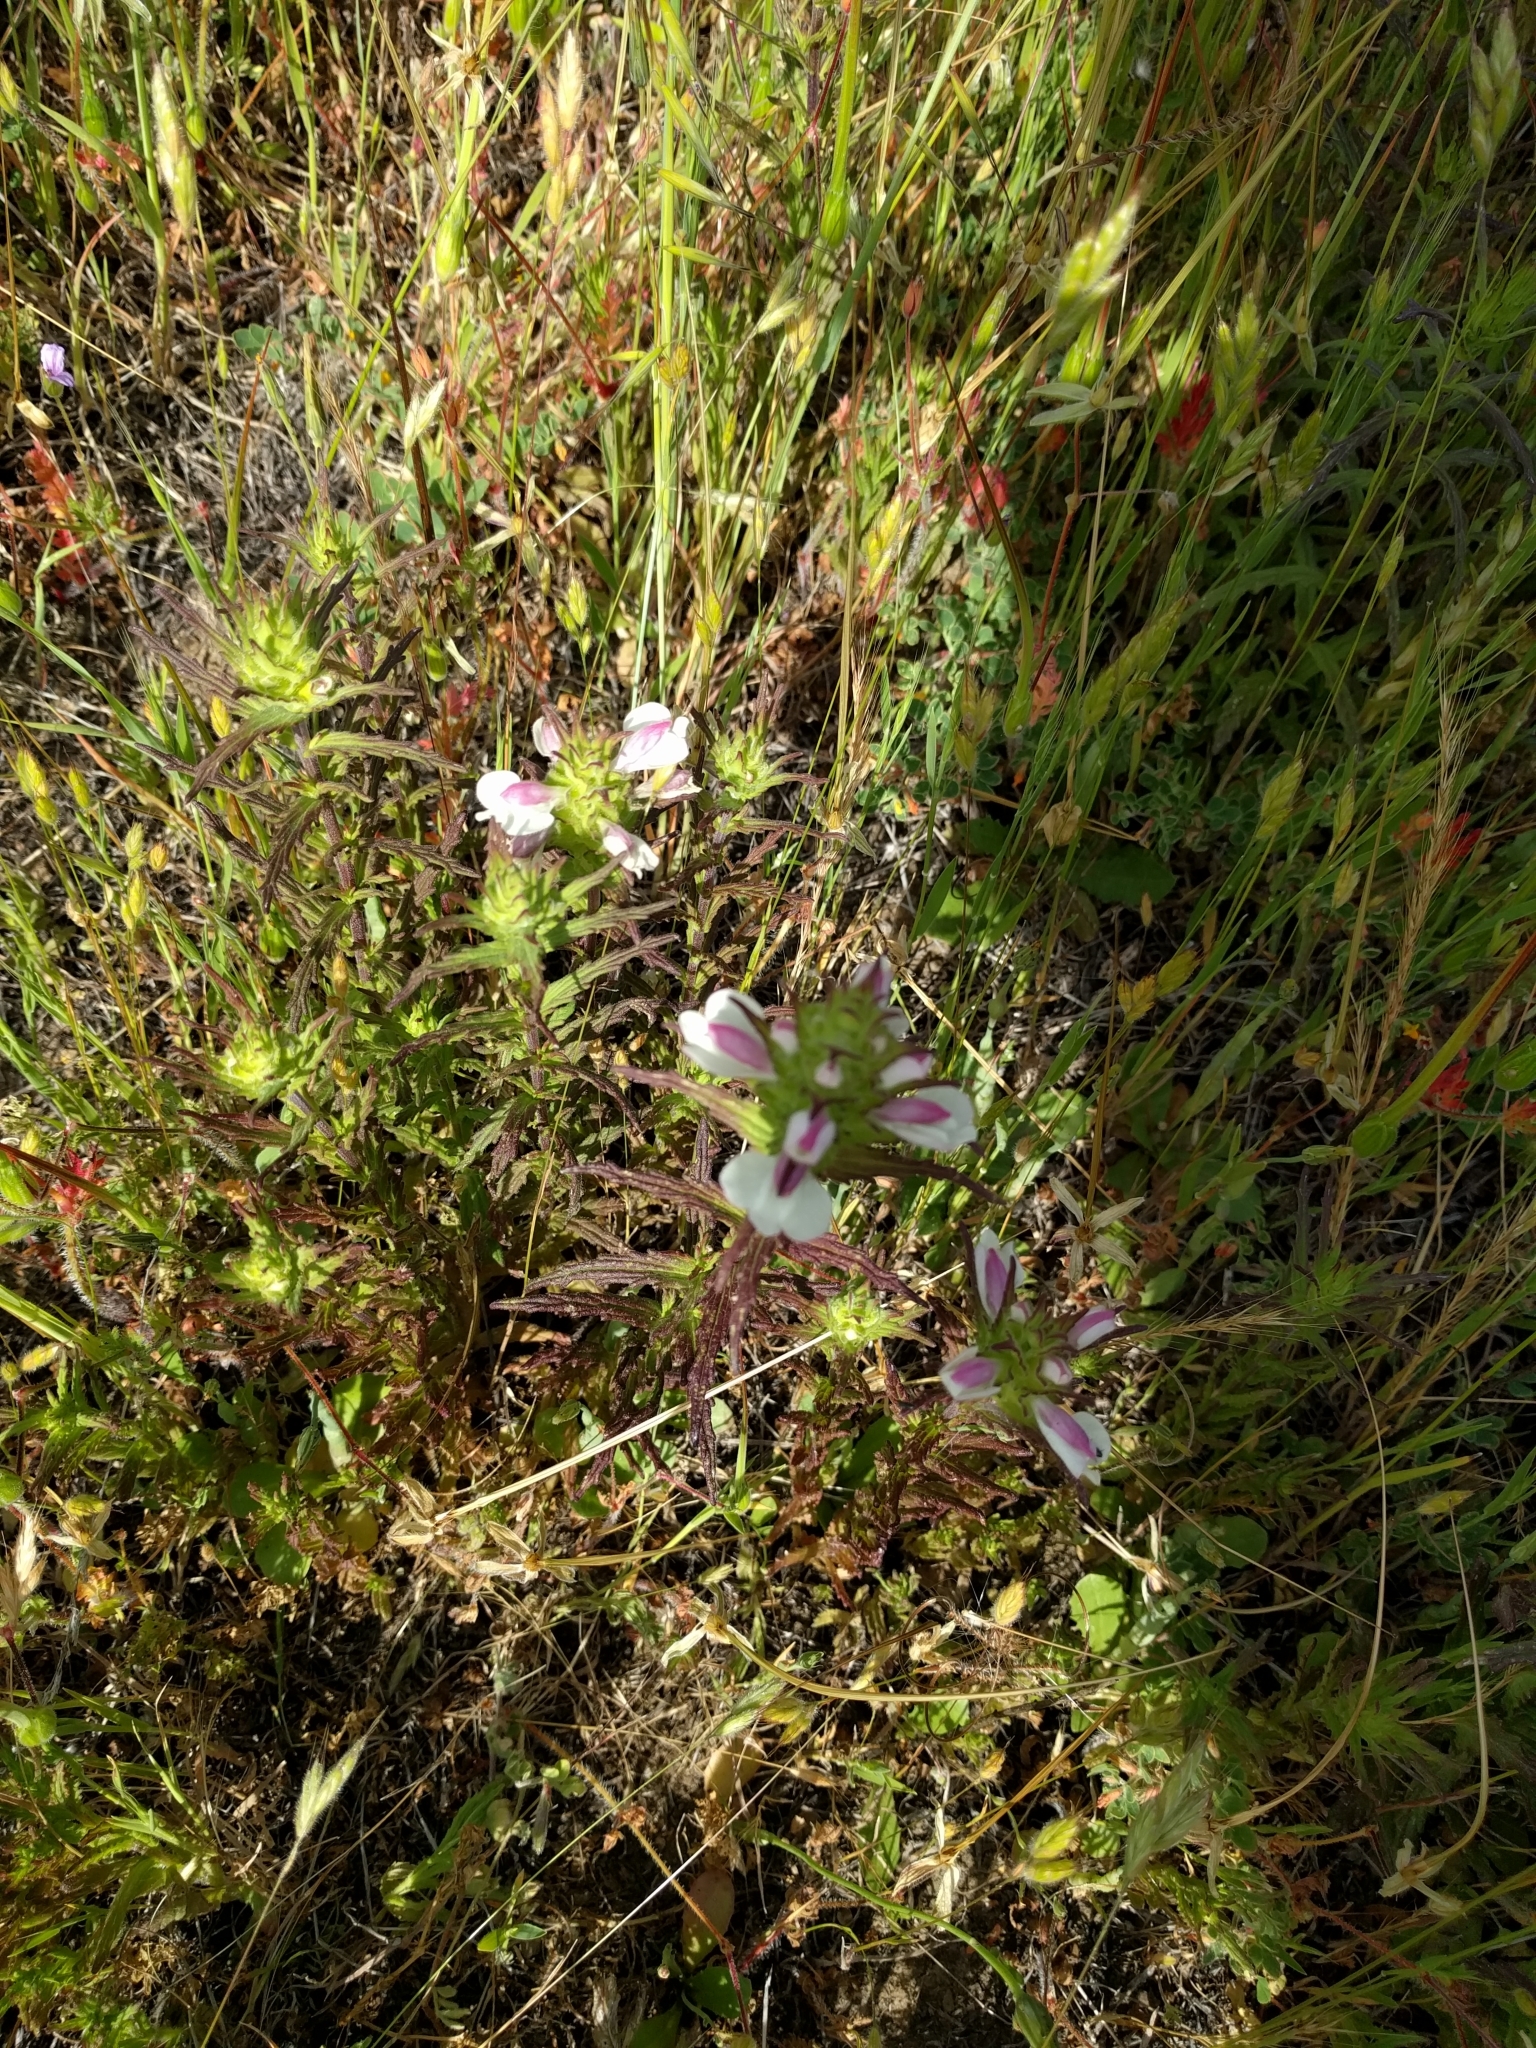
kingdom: Plantae
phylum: Tracheophyta
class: Magnoliopsida
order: Lamiales
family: Orobanchaceae
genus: Bellardia
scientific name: Bellardia trixago
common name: Mediterranean lineseed
